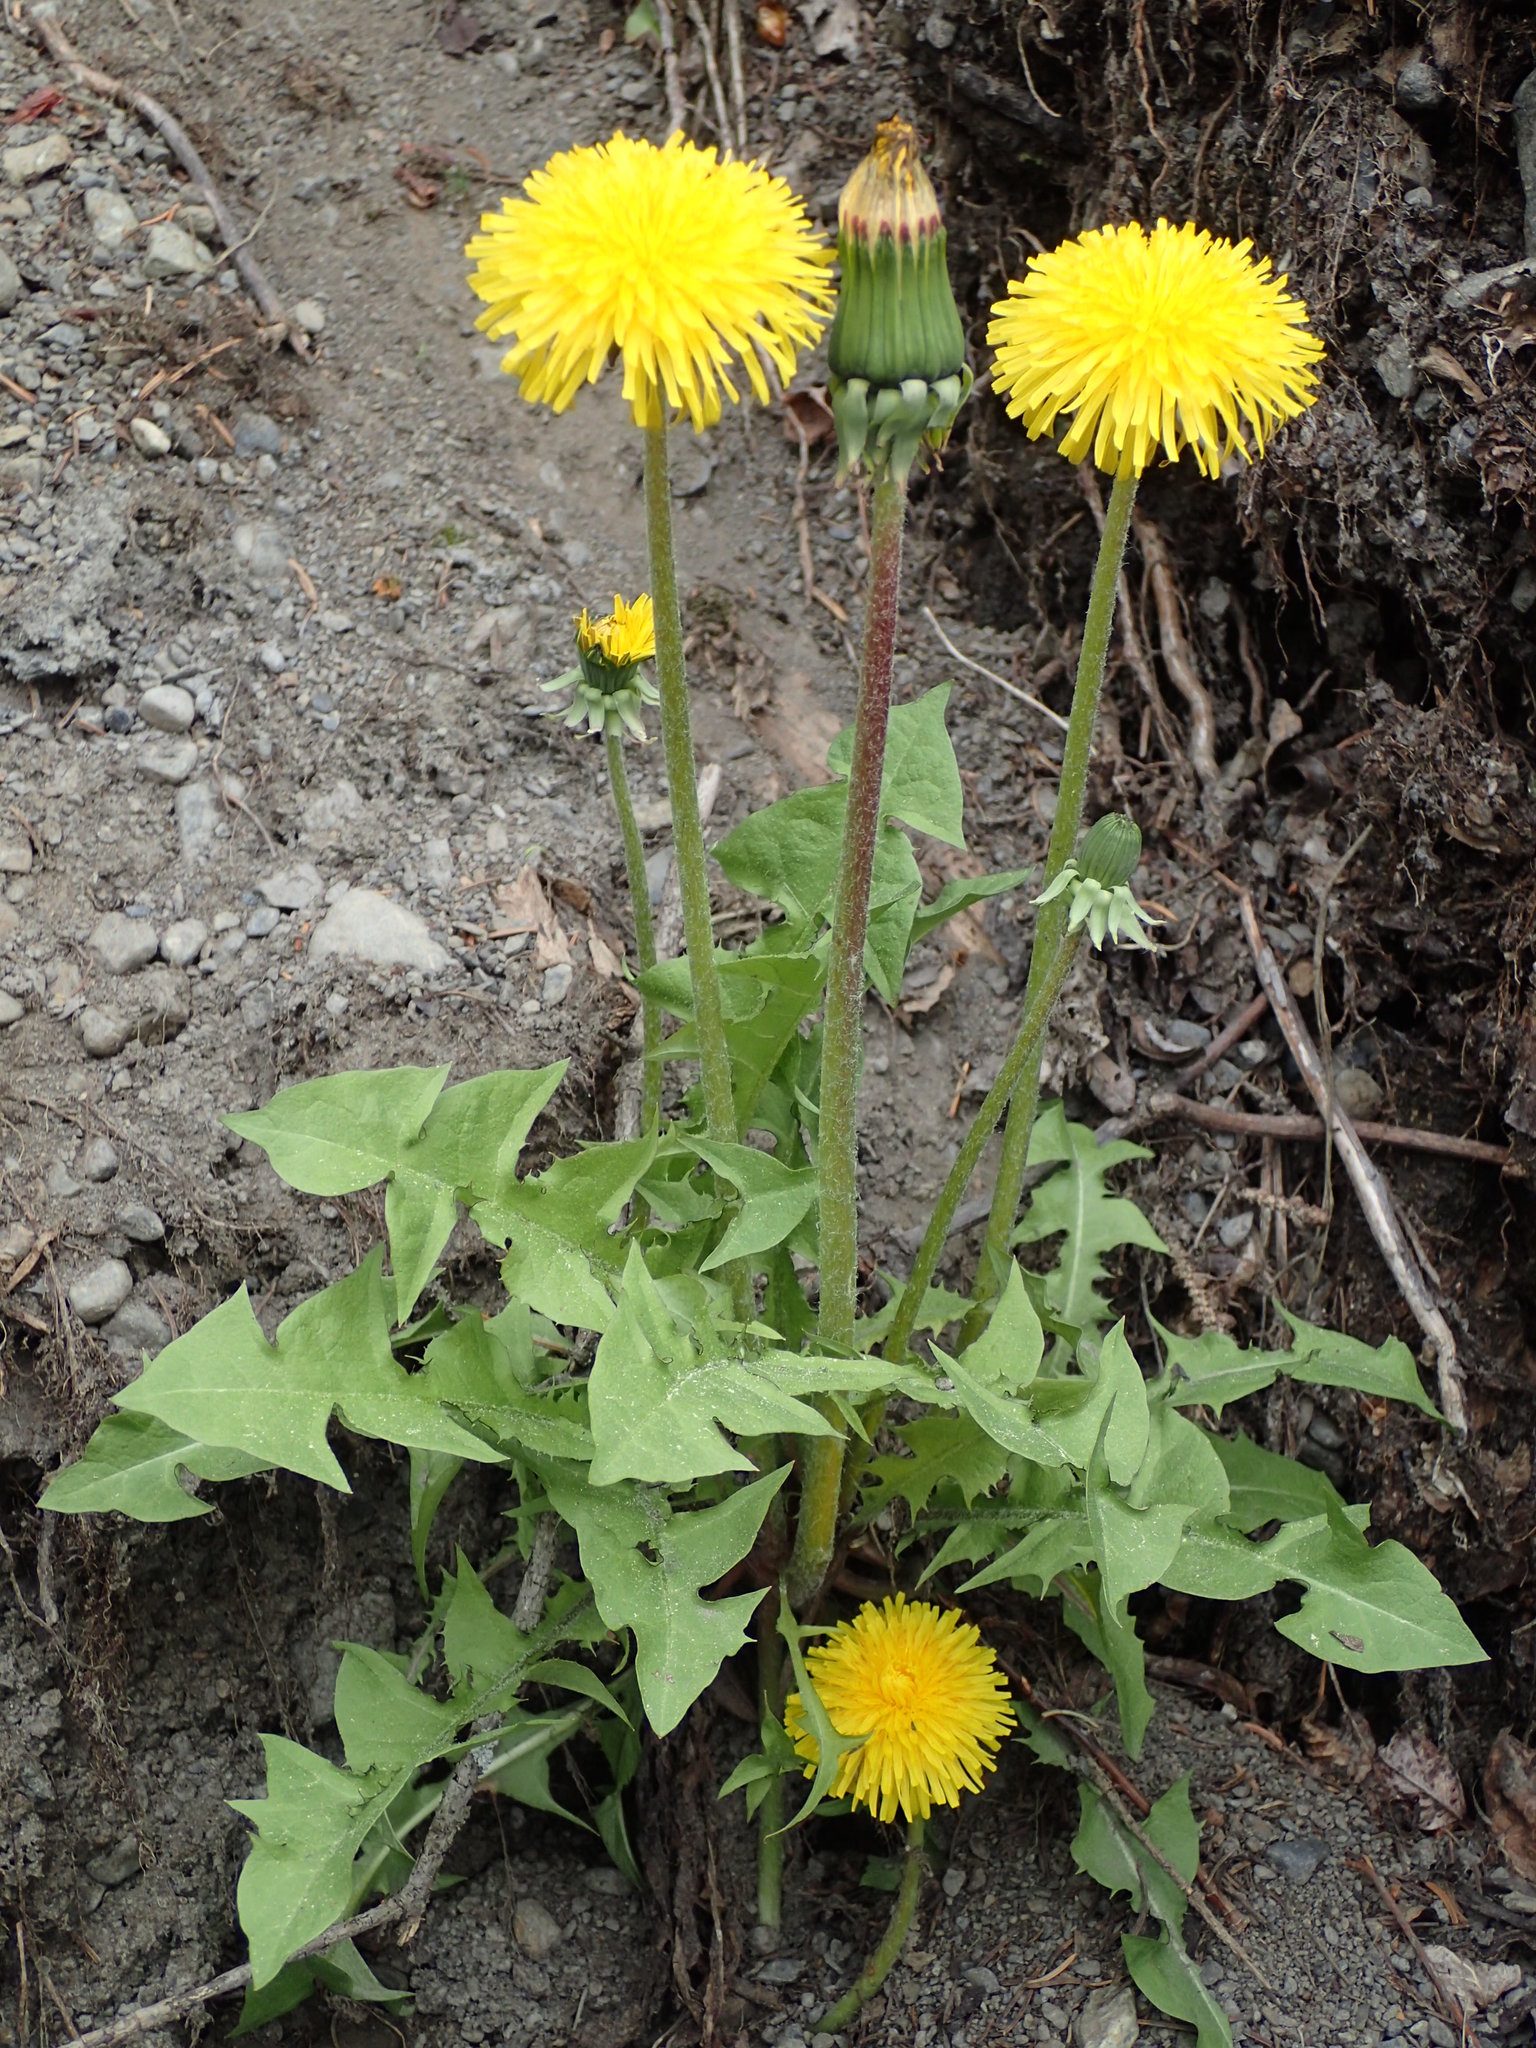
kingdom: Plantae
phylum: Tracheophyta
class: Magnoliopsida
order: Asterales
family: Asteraceae
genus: Taraxacum
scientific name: Taraxacum officinale
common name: Common dandelion
